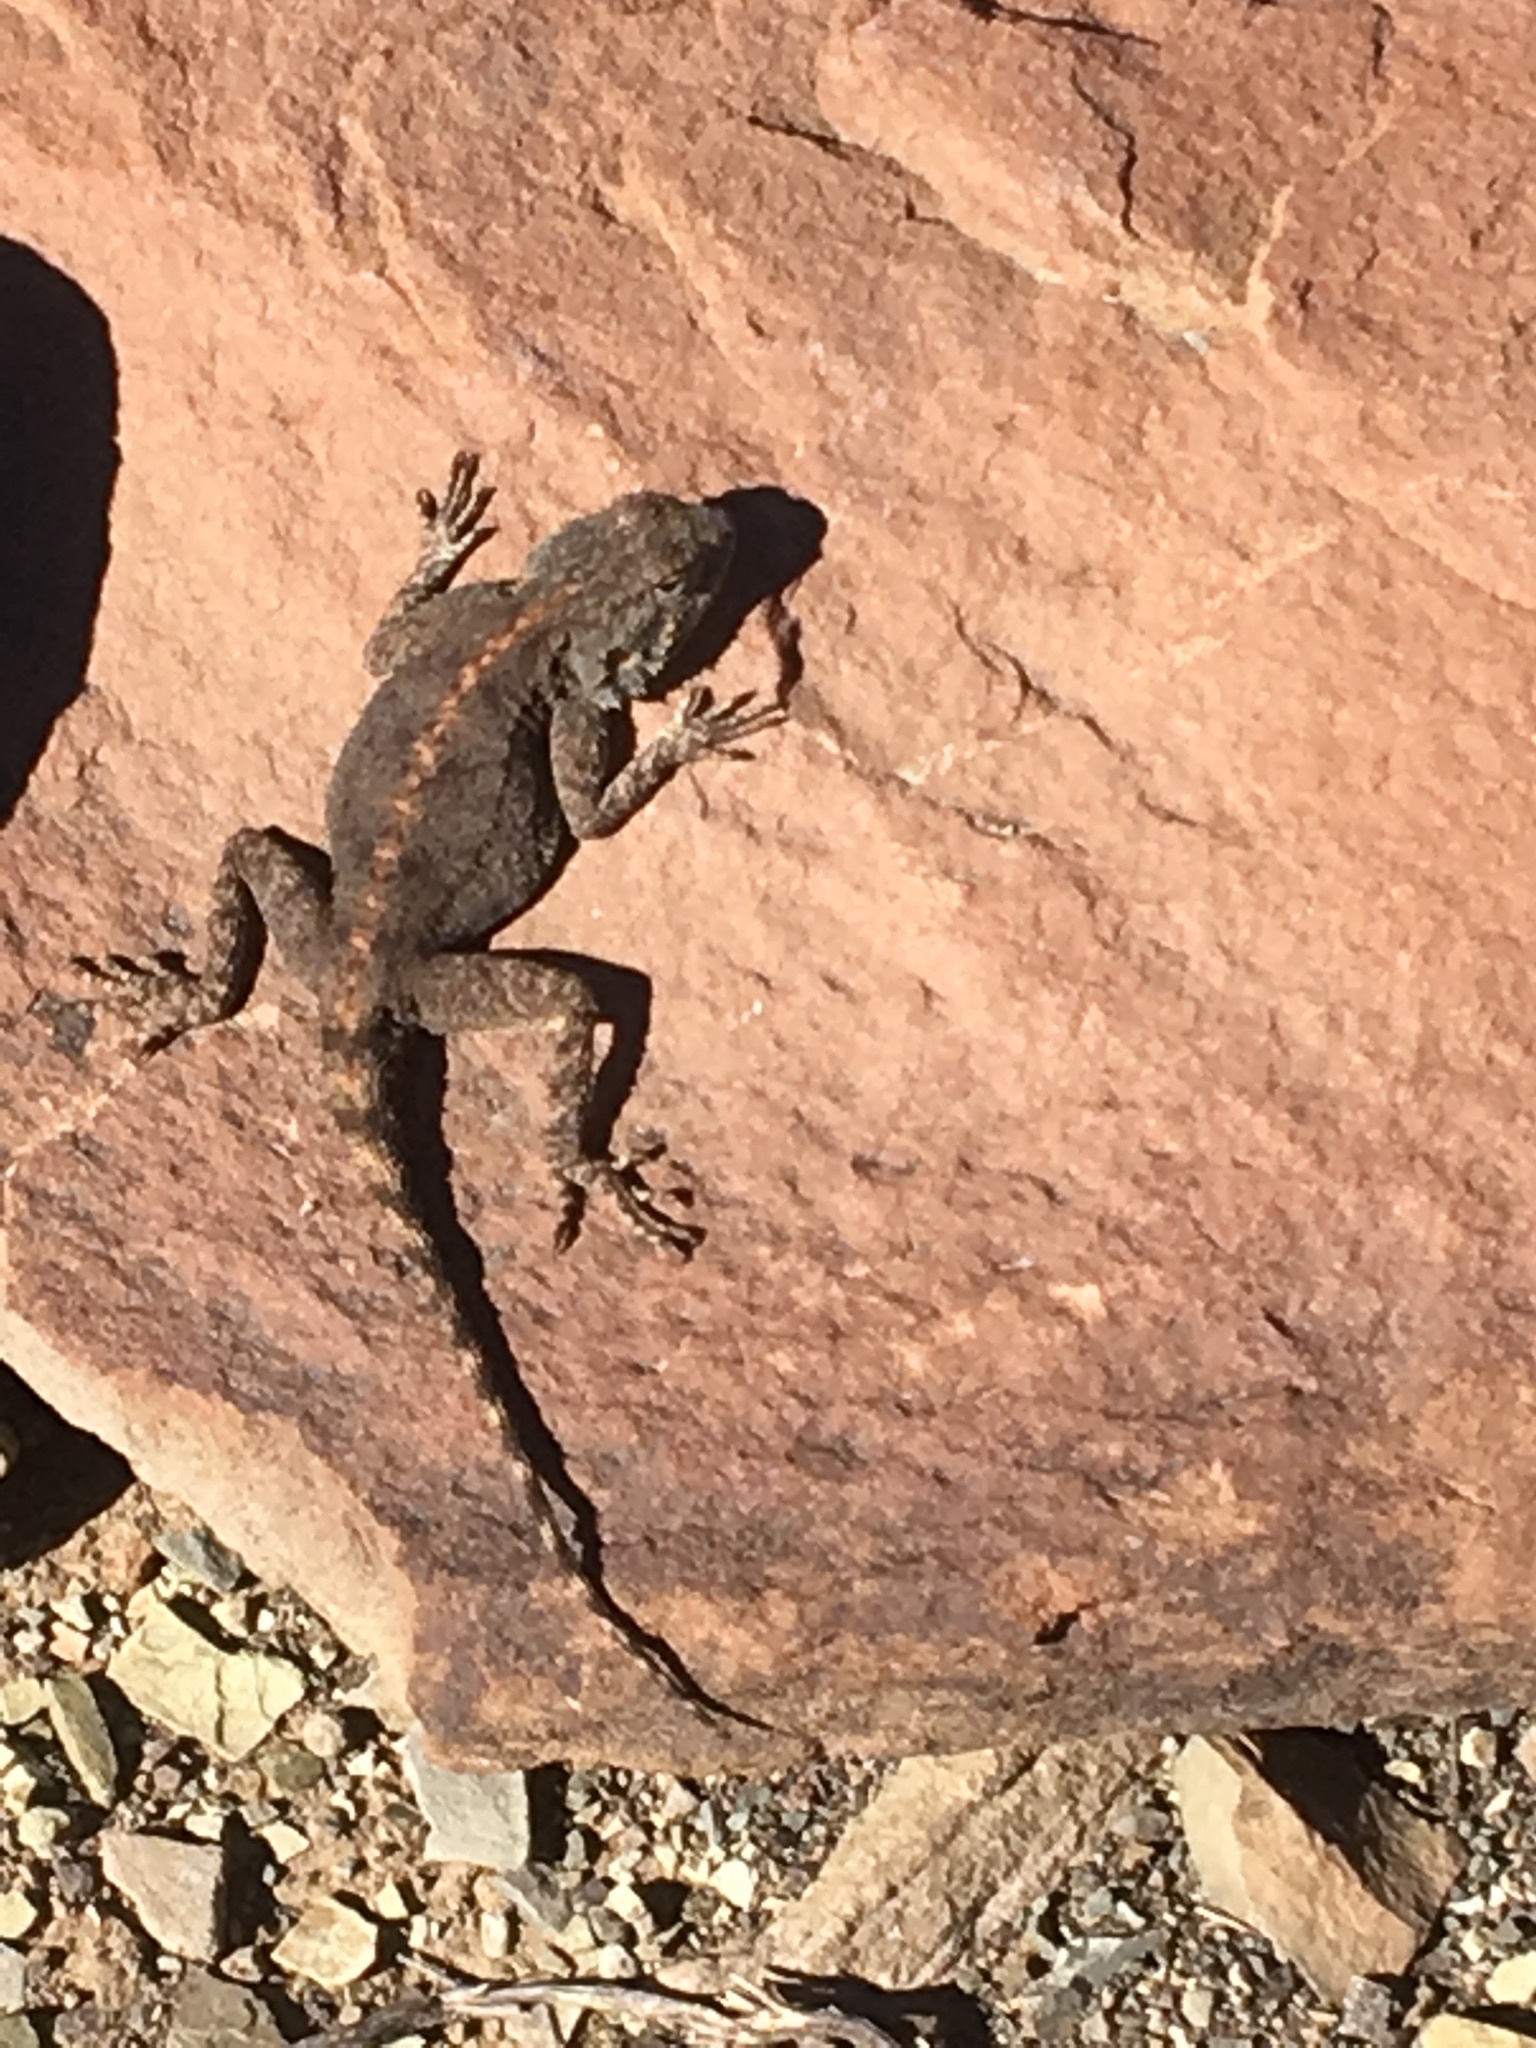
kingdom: Animalia
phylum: Chordata
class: Squamata
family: Agamidae
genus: Agama
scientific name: Agama atra
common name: Southern african rock agama
